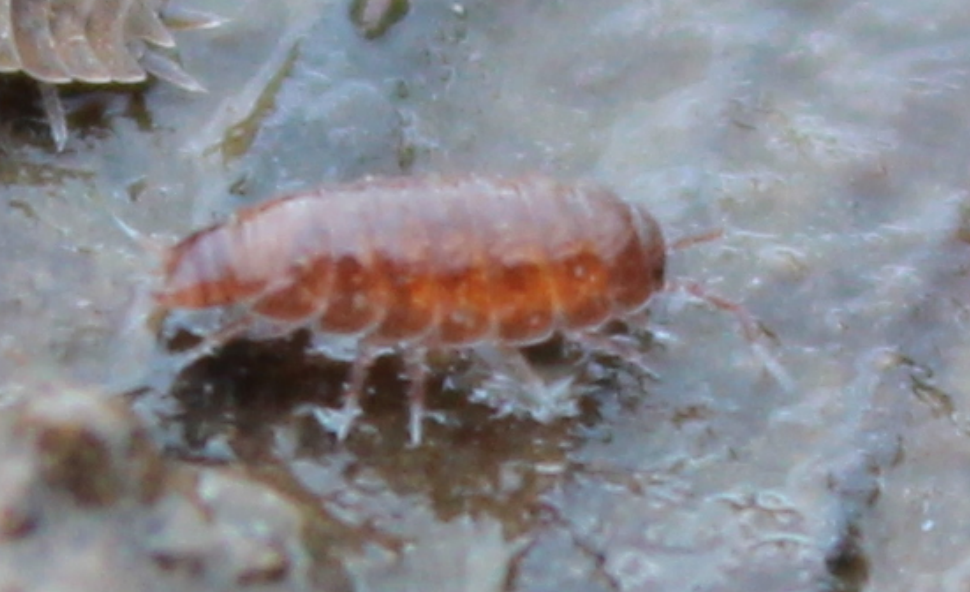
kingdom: Animalia
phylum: Arthropoda
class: Malacostraca
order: Isopoda
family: Trichoniscidae
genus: Trichoniscus
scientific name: Trichoniscus
